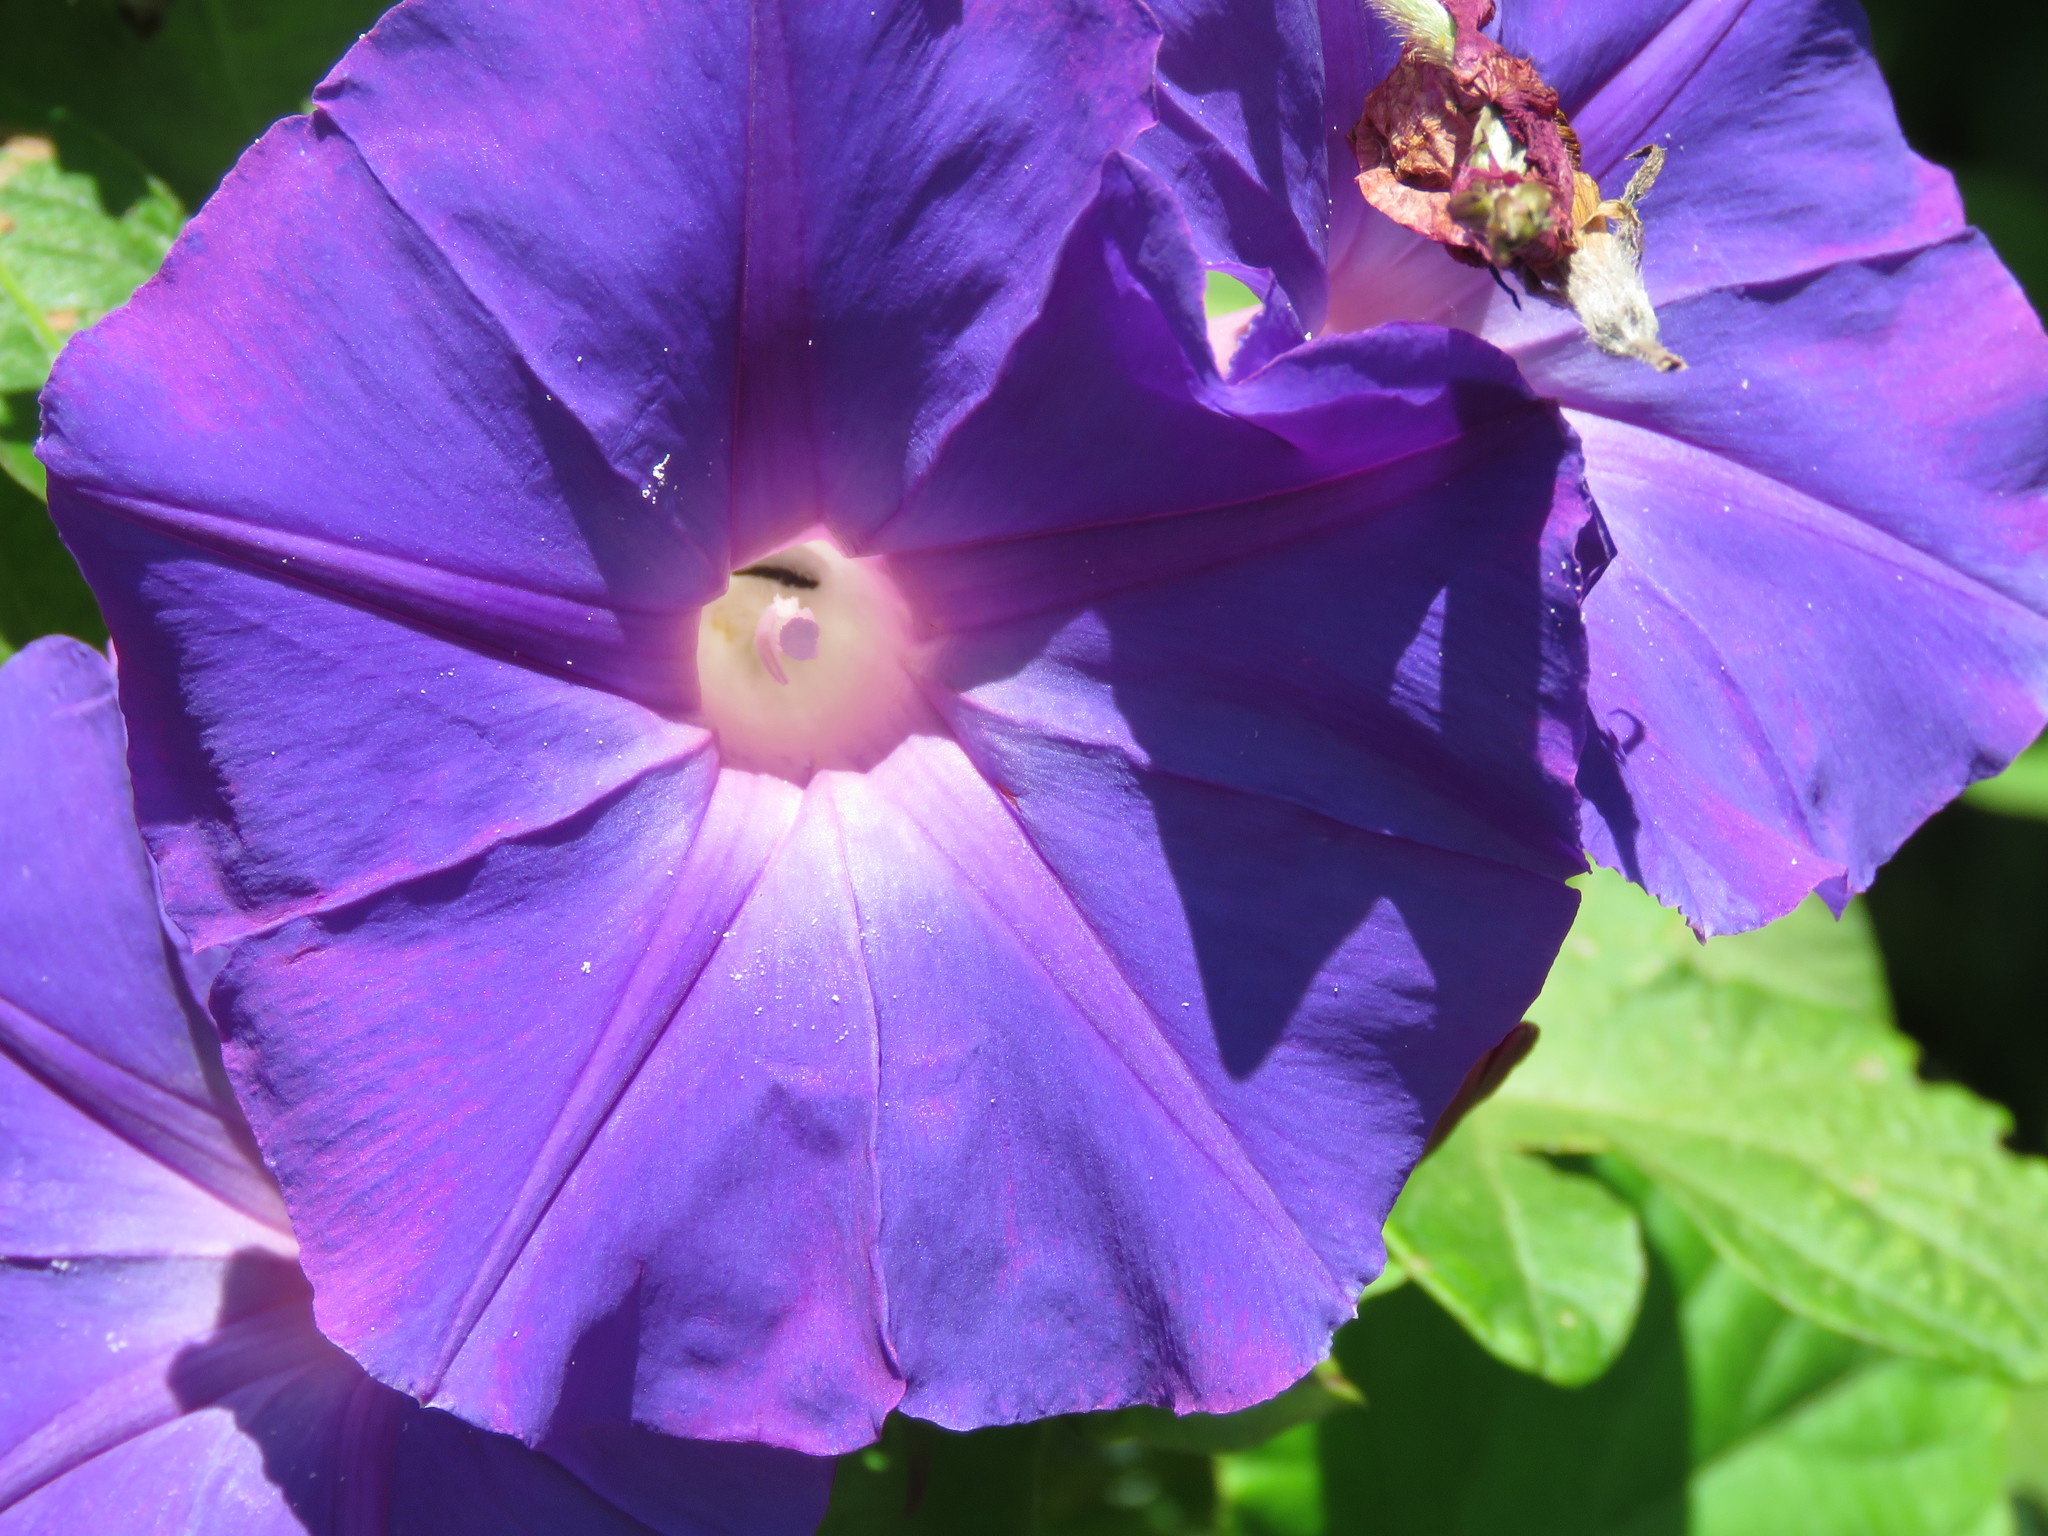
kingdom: Plantae
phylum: Tracheophyta
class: Magnoliopsida
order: Solanales
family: Convolvulaceae
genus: Ipomoea
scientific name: Ipomoea indica
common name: Blue dawnflower
